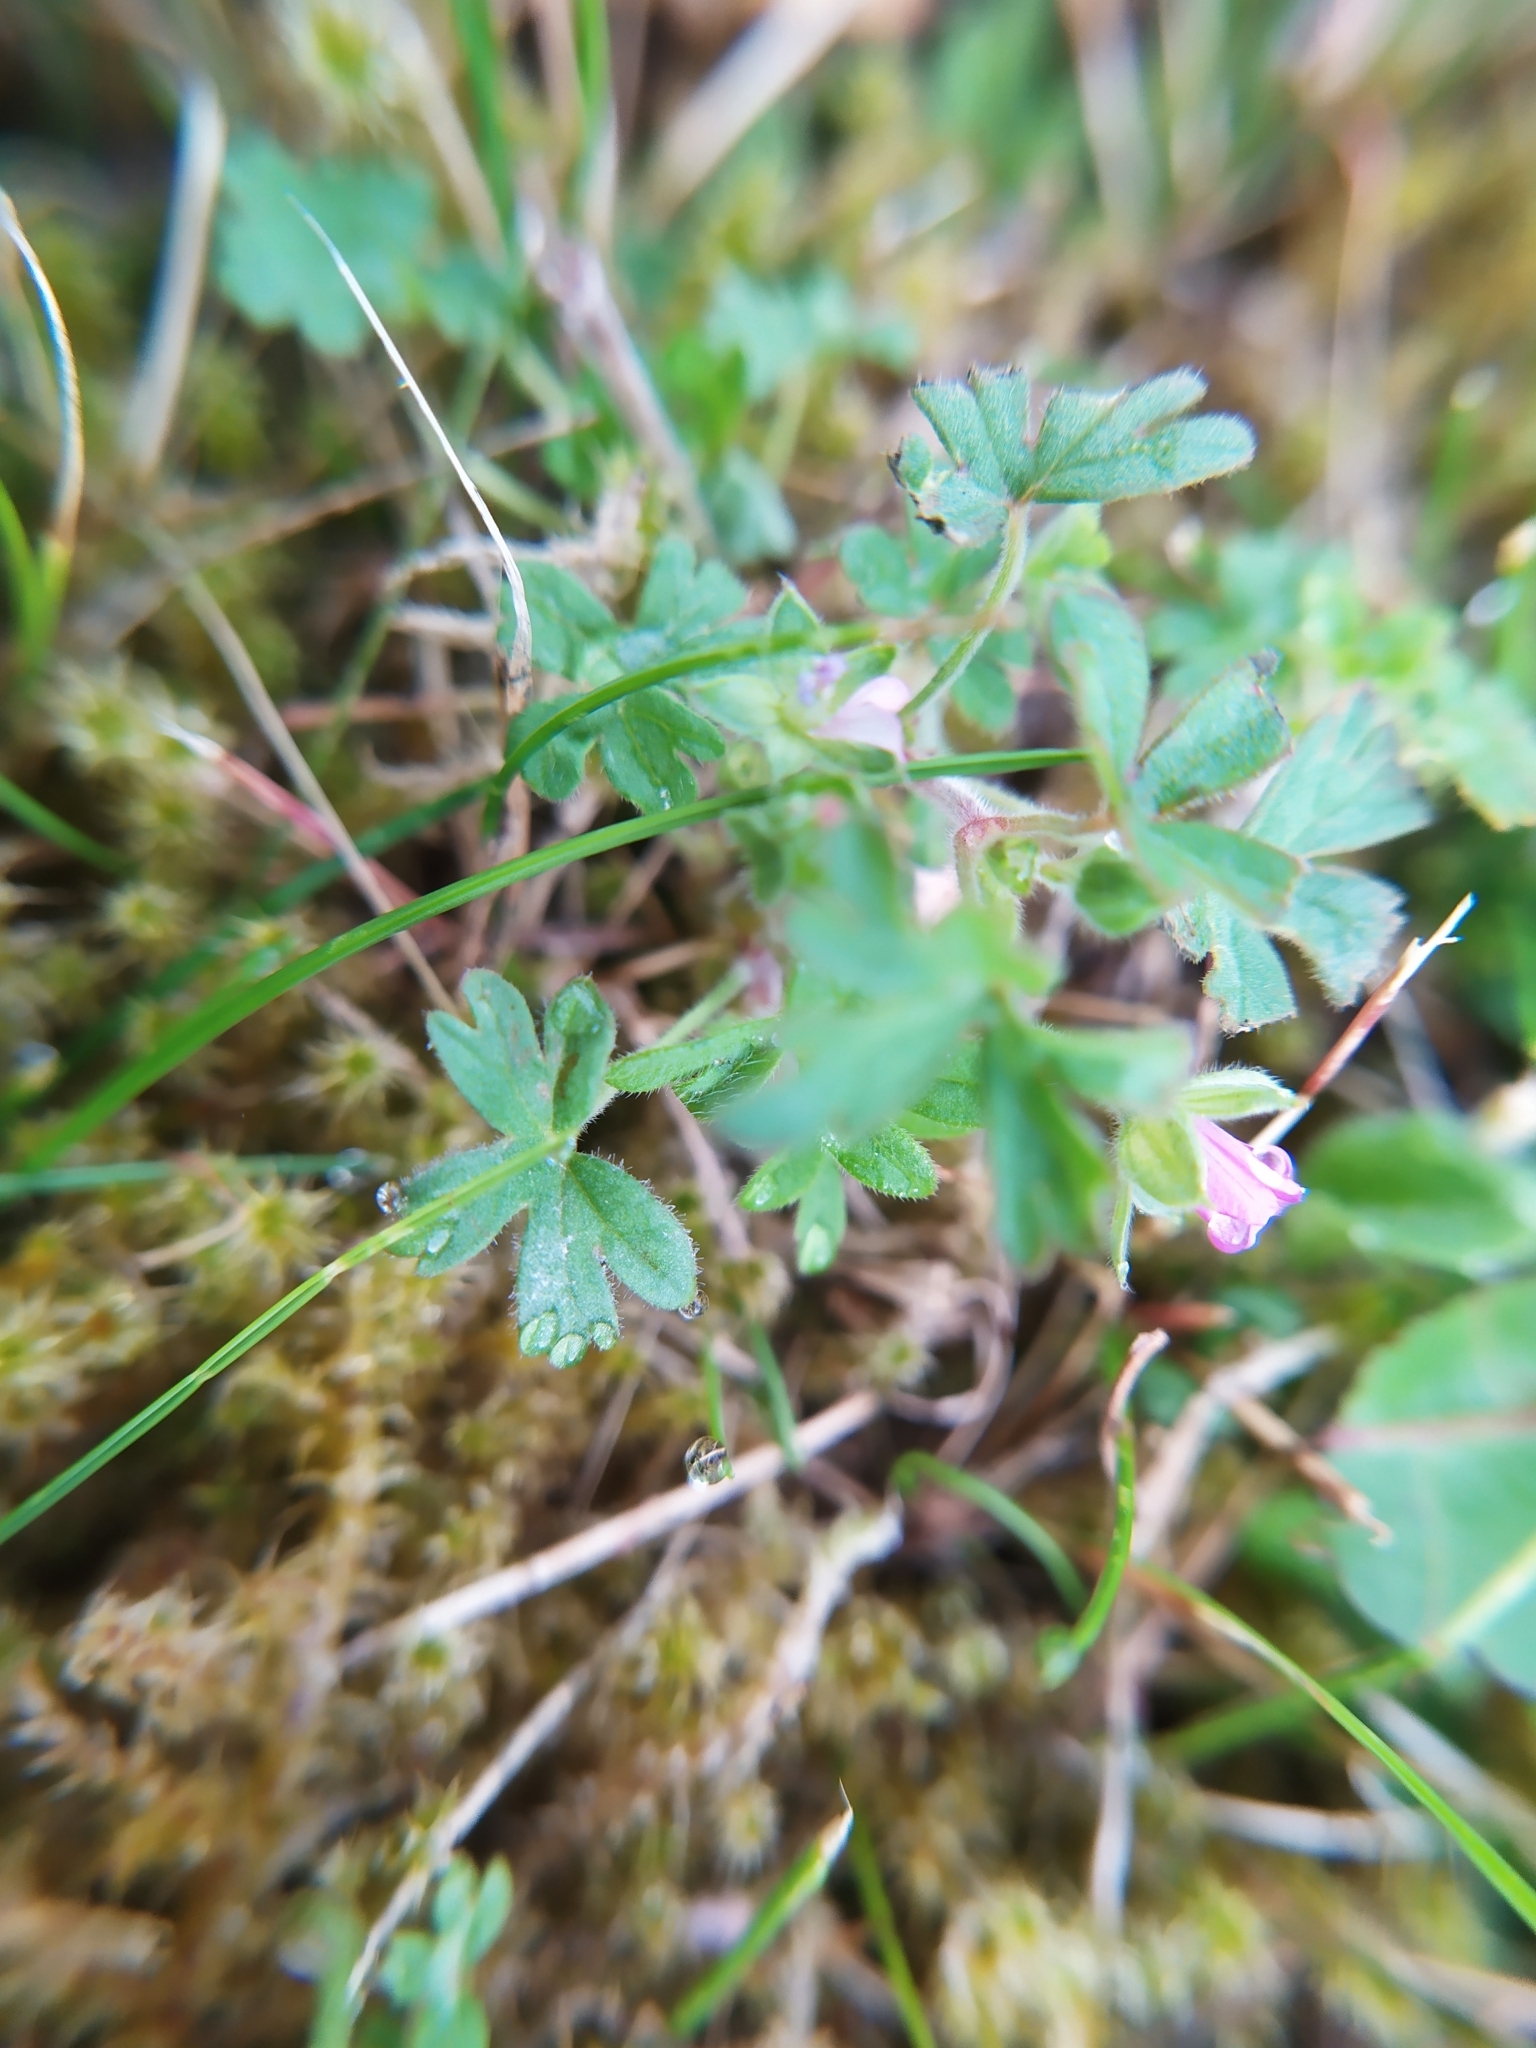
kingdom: Plantae
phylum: Tracheophyta
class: Magnoliopsida
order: Geraniales
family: Geraniaceae
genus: Geranium
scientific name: Geranium molle
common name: Dove's-foot crane's-bill
